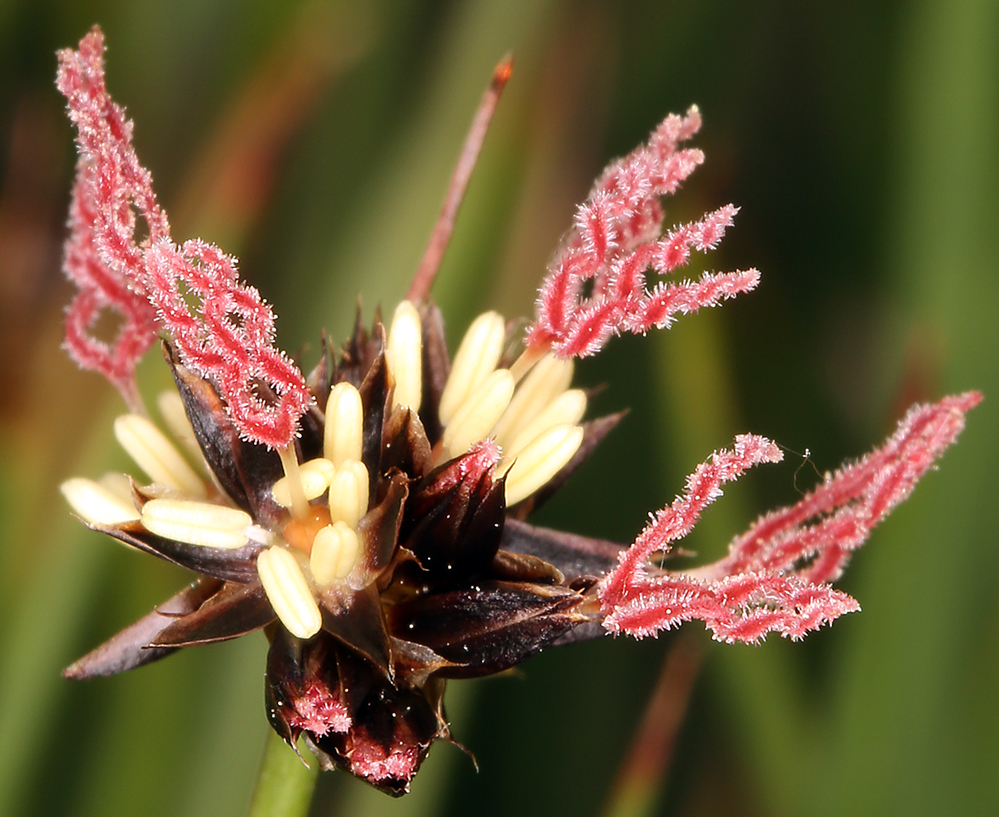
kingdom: Plantae
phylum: Tracheophyta
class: Liliopsida
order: Poales
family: Juncaceae
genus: Juncus
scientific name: Juncus mertensianus
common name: Merten's rush
